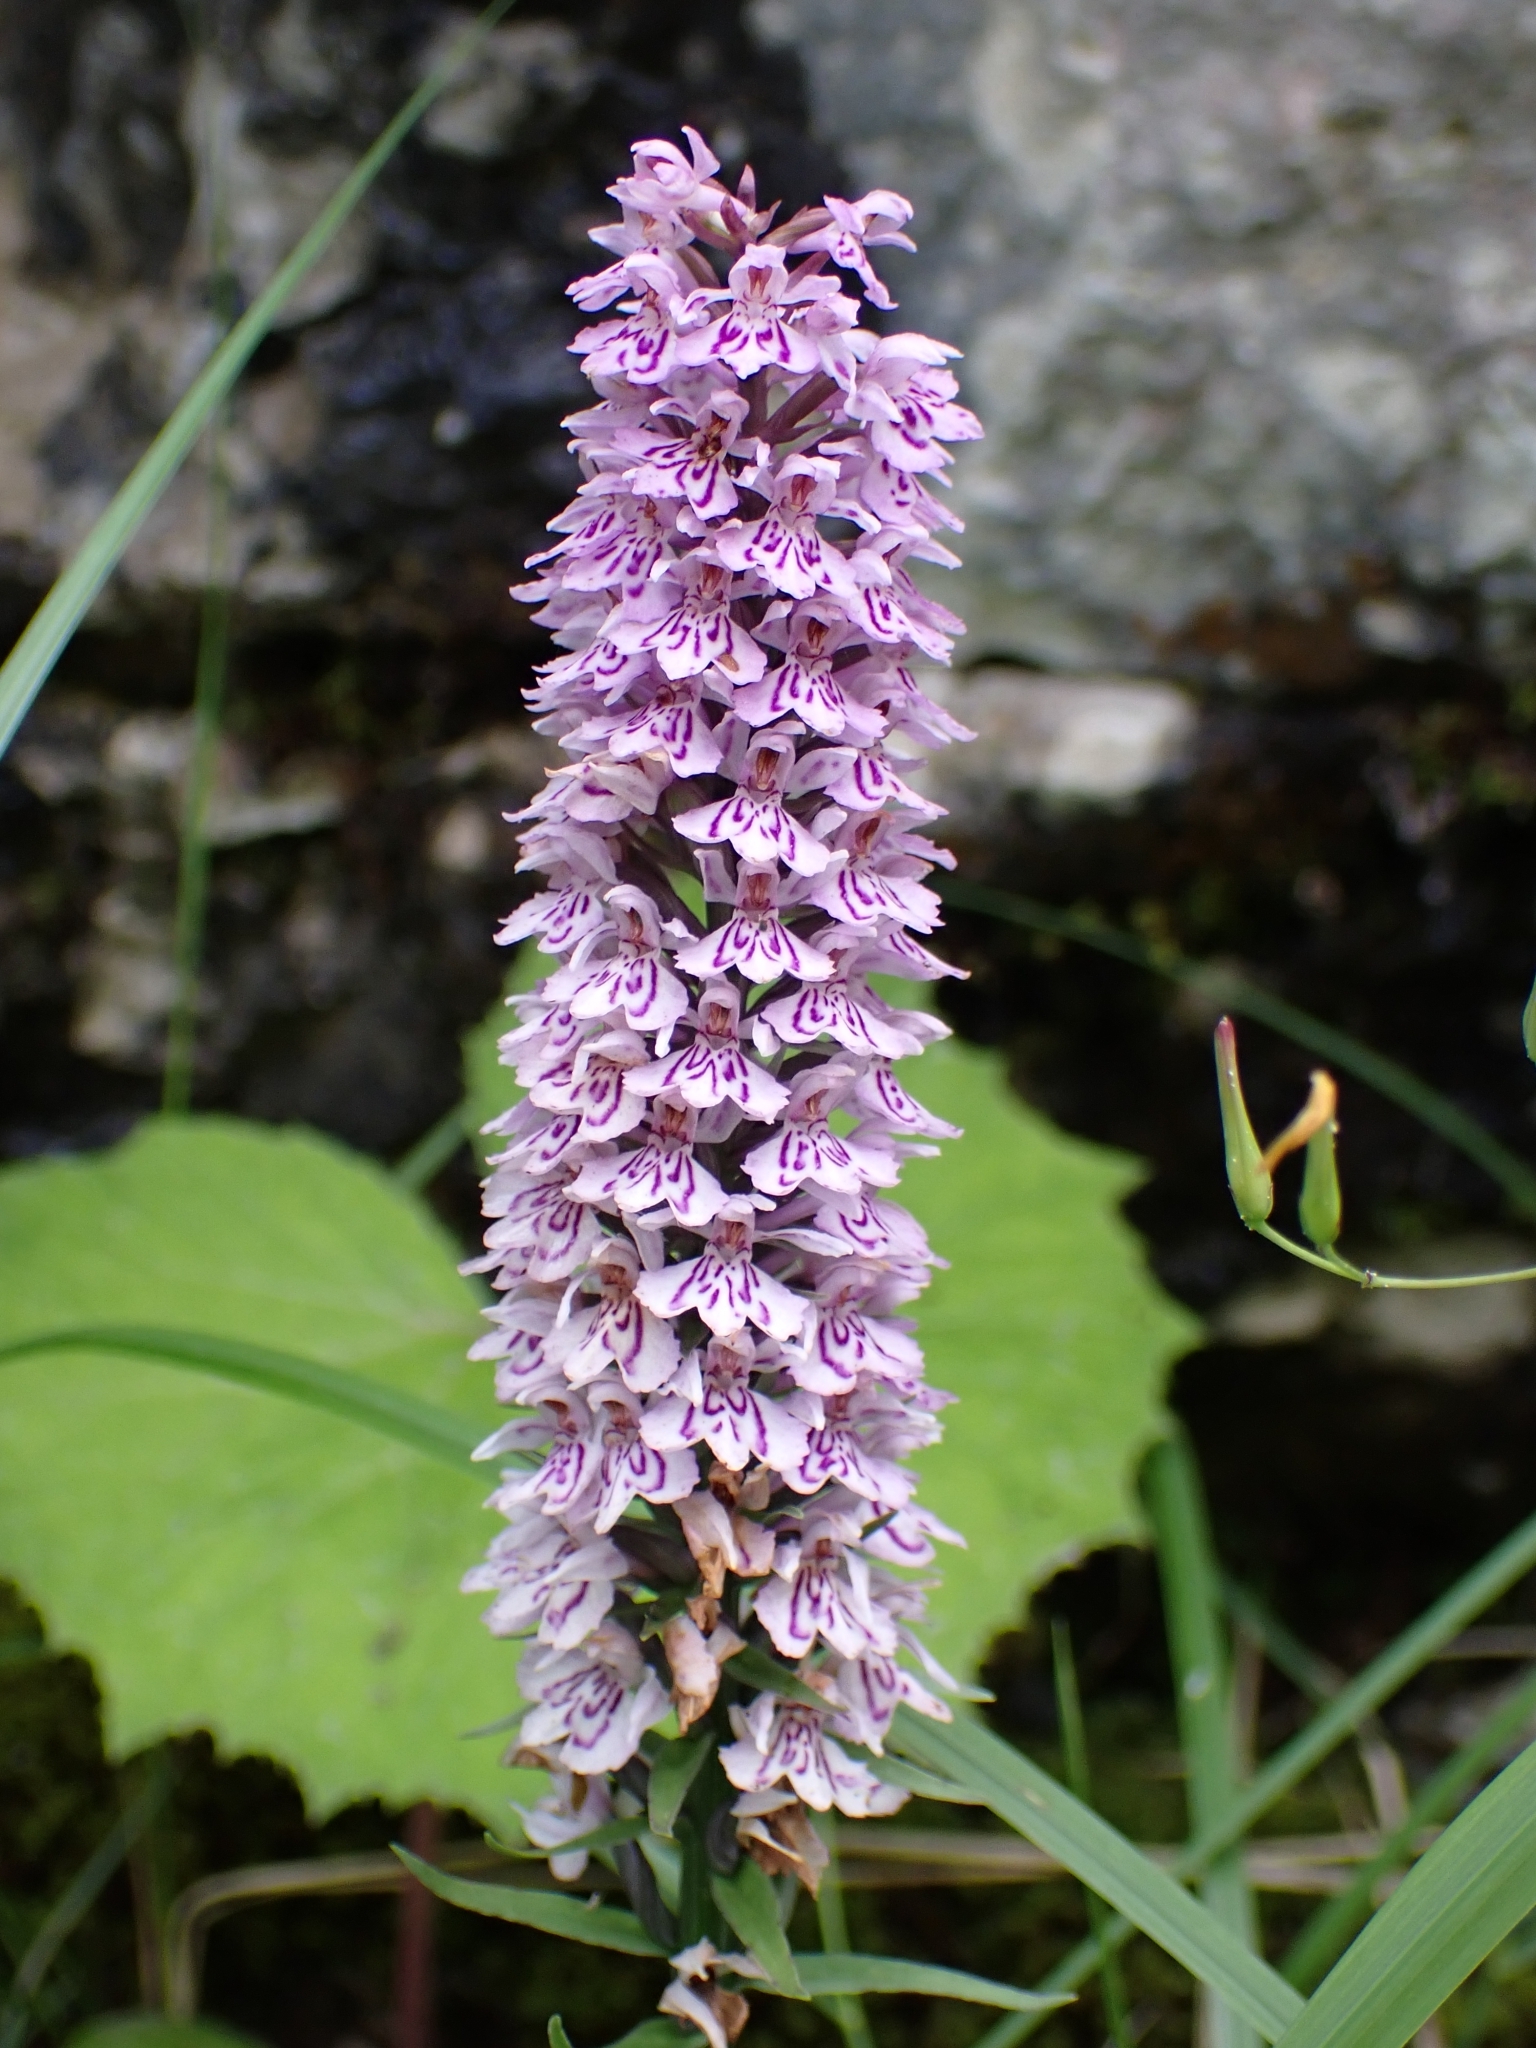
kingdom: Plantae
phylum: Tracheophyta
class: Liliopsida
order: Asparagales
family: Orchidaceae
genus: Dactylorhiza
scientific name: Dactylorhiza maculata
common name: Heath spotted-orchid
